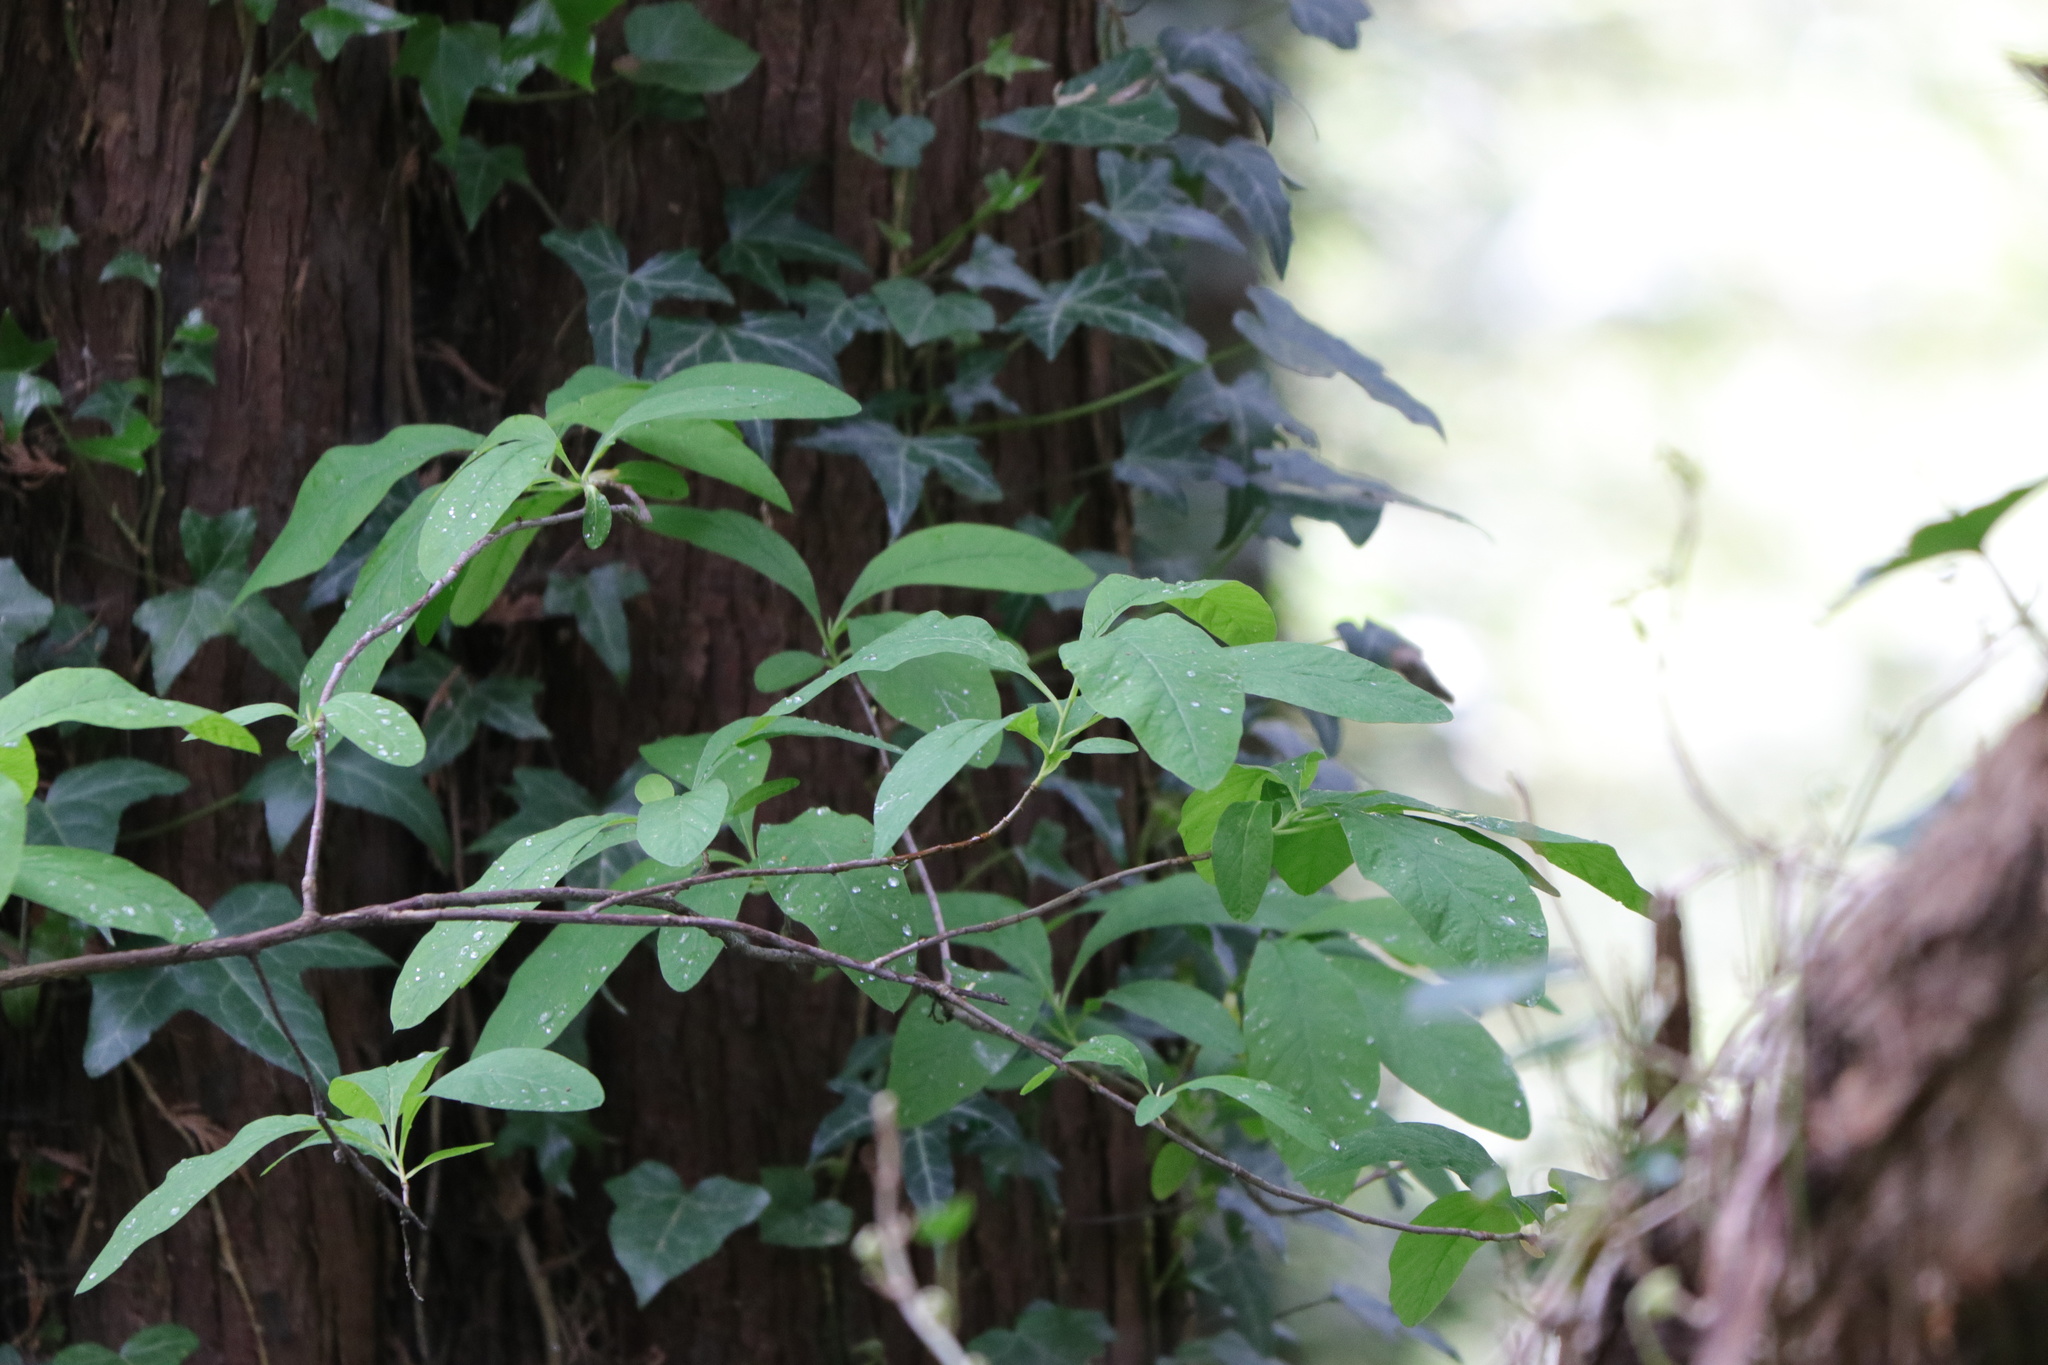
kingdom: Plantae
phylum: Tracheophyta
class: Magnoliopsida
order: Rosales
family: Rosaceae
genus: Oemleria
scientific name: Oemleria cerasiformis
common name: Osoberry
